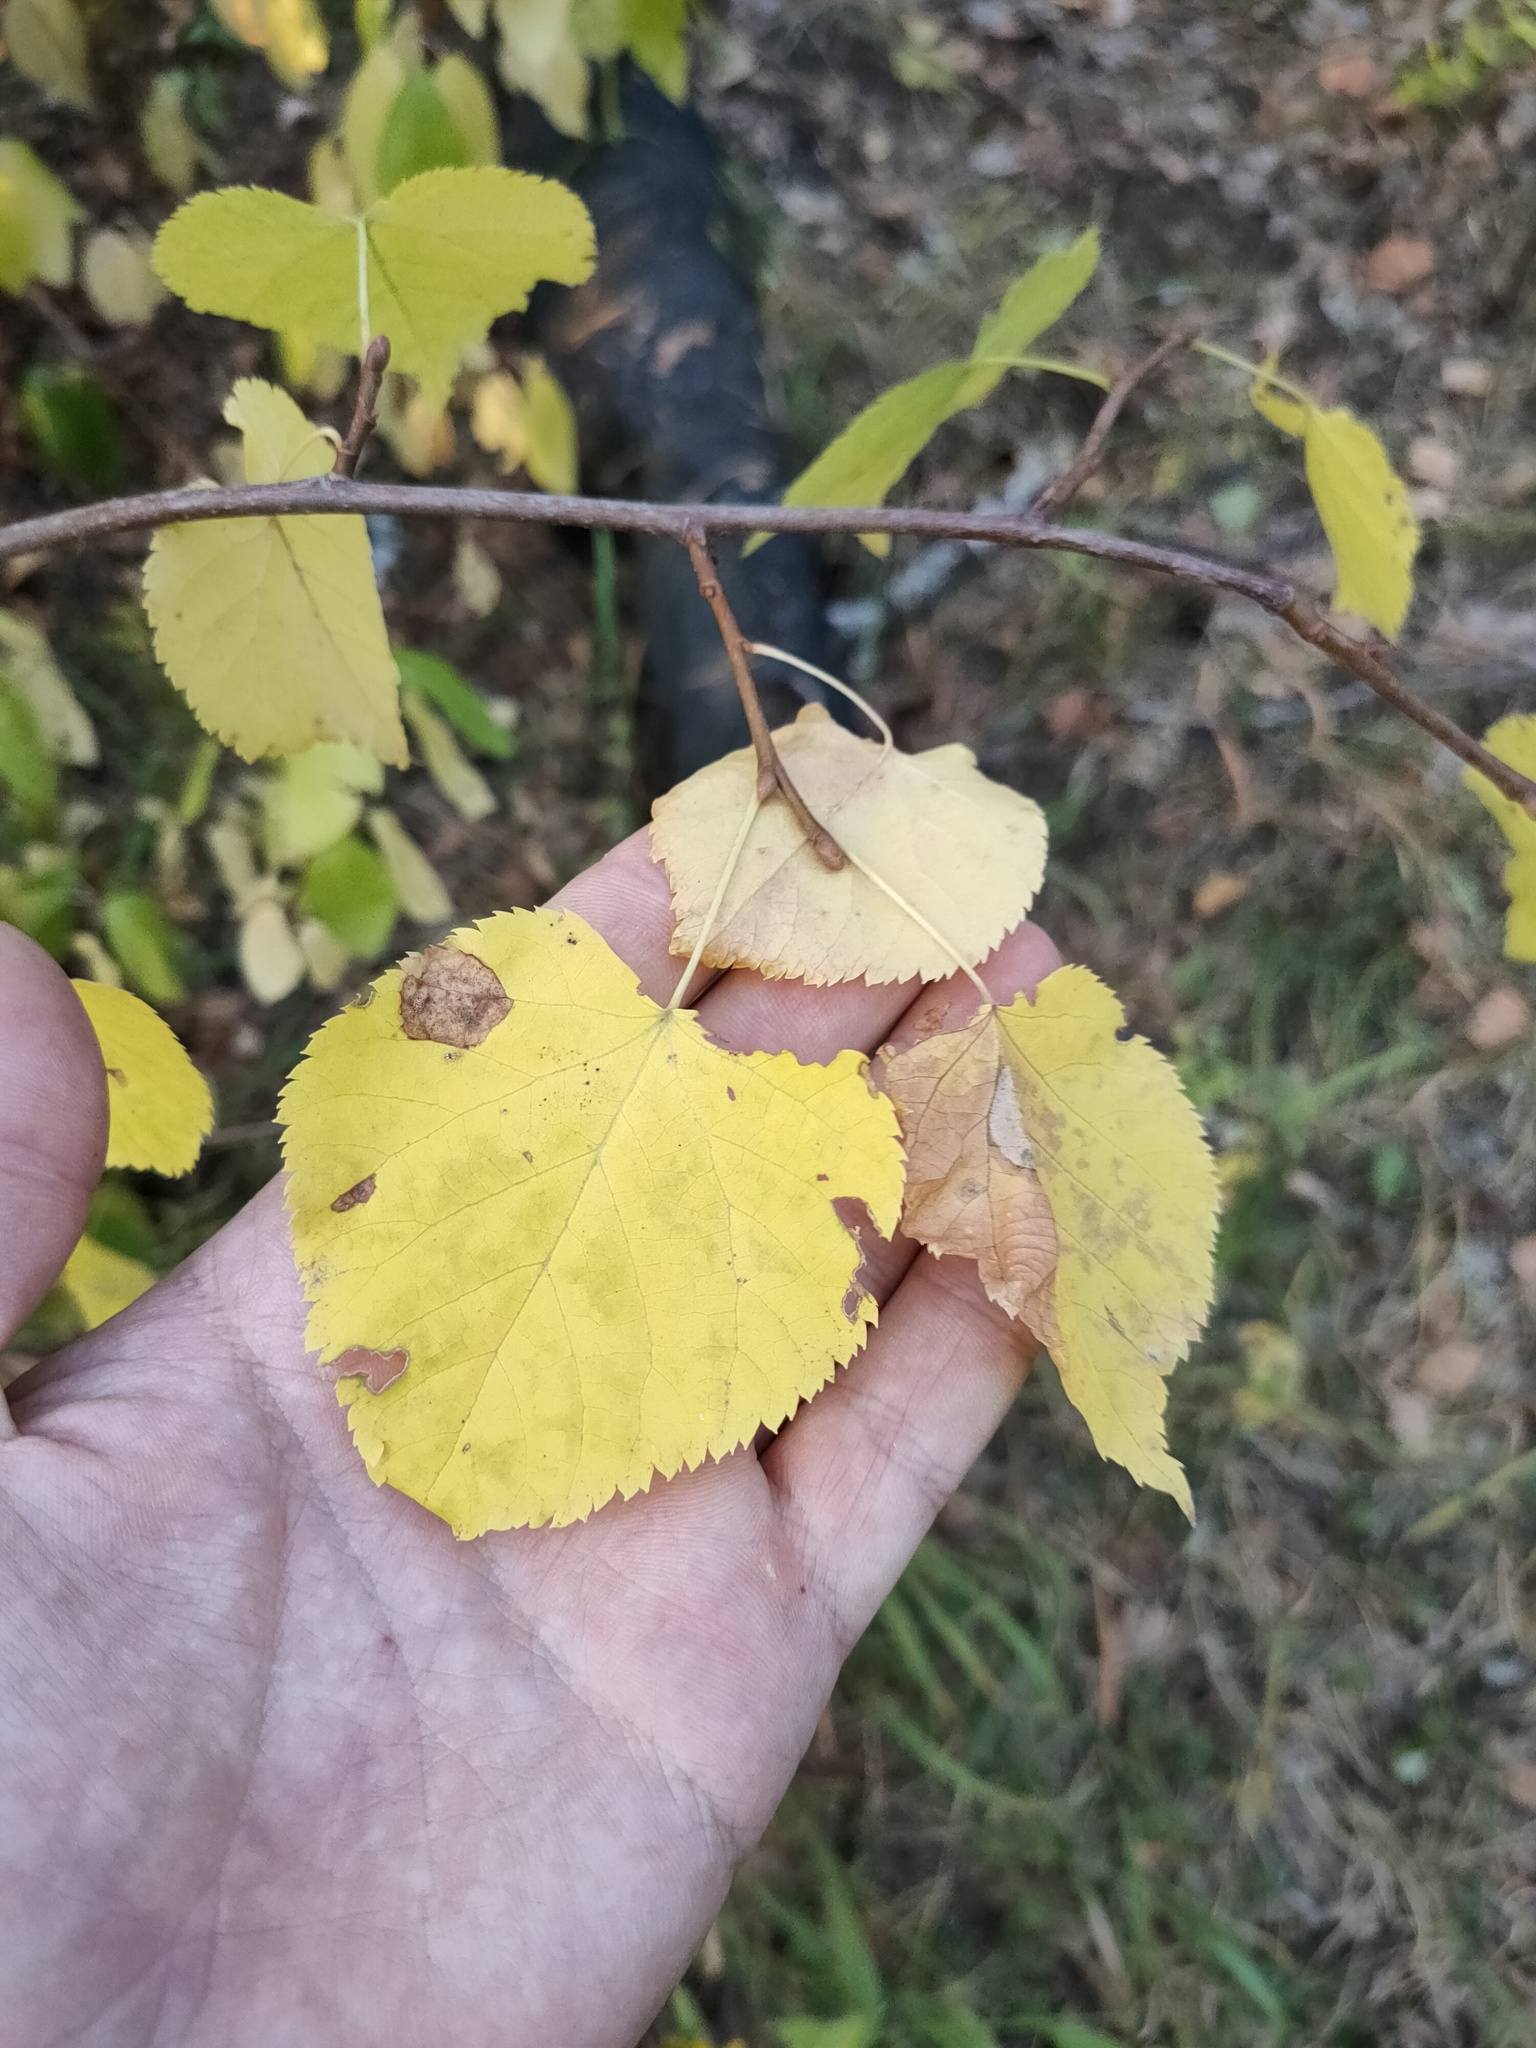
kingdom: Plantae
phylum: Tracheophyta
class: Magnoliopsida
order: Malvales
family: Malvaceae
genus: Tilia
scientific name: Tilia cordata
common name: Small-leaved lime
